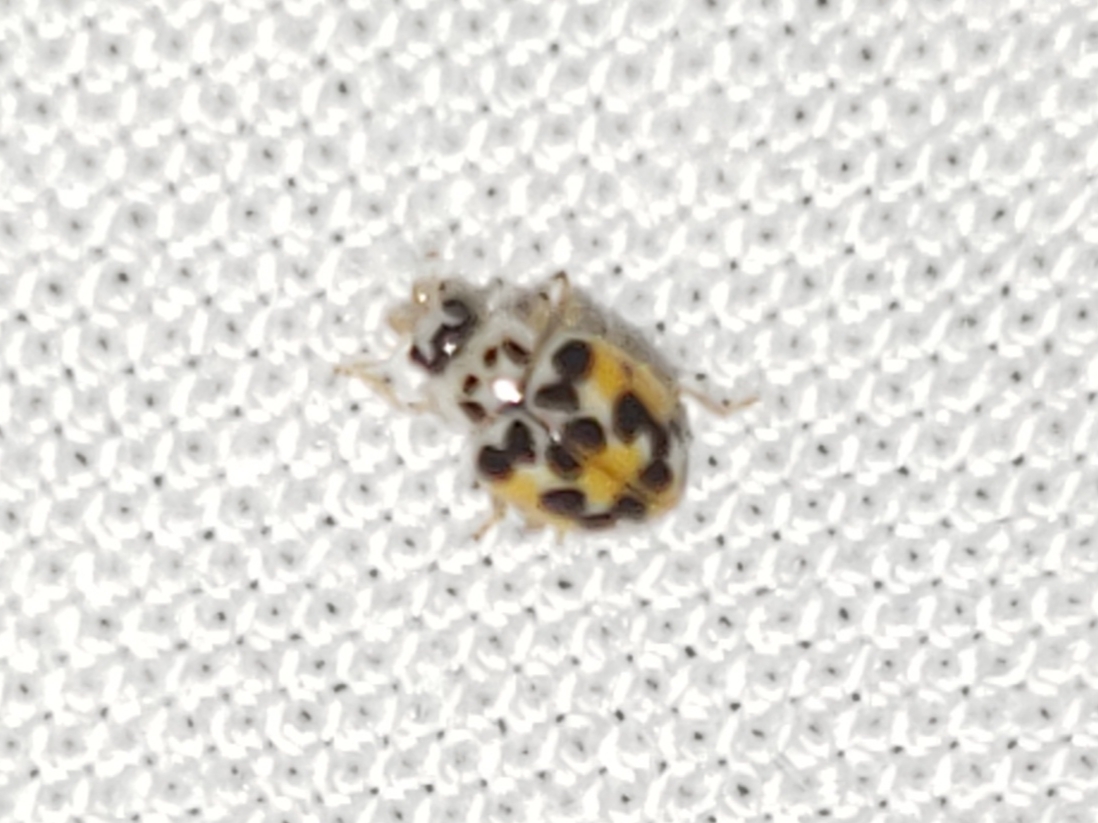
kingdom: Animalia
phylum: Arthropoda
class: Insecta
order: Coleoptera
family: Coccinellidae
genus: Psyllobora
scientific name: Psyllobora vigintimaculata
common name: Ladybird beetle
